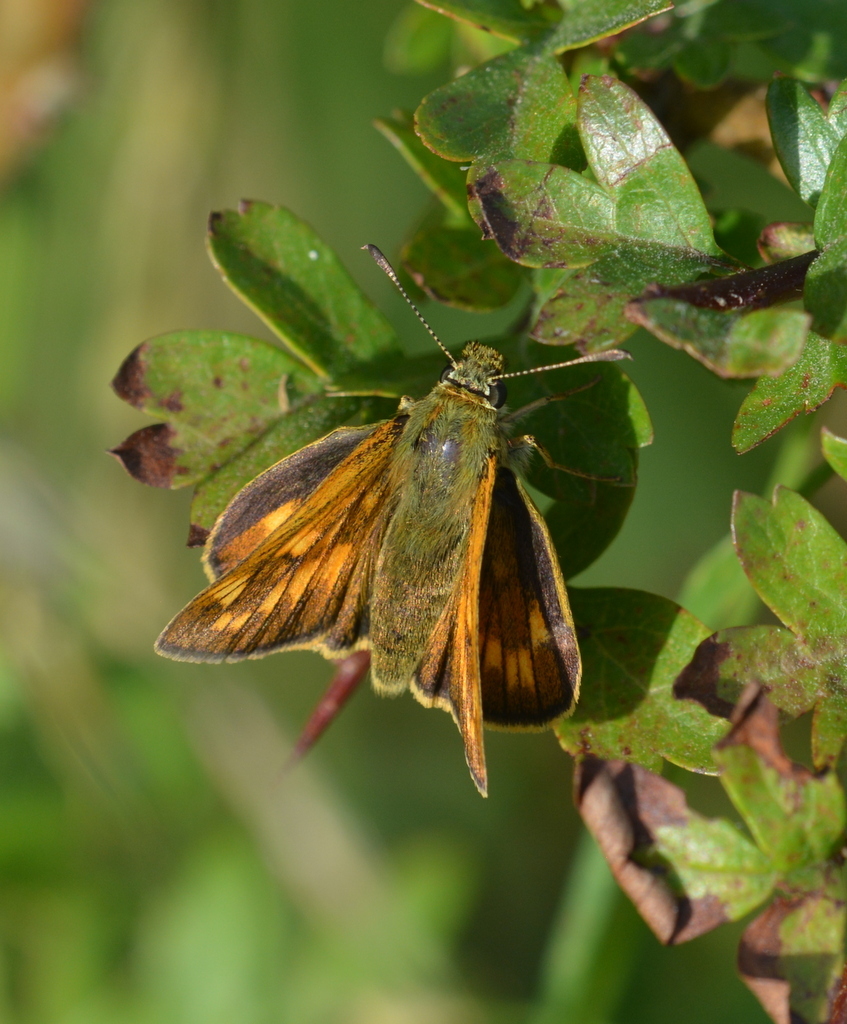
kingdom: Animalia
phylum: Arthropoda
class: Insecta
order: Lepidoptera
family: Hesperiidae
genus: Ochlodes
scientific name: Ochlodes venata
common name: Large skipper
